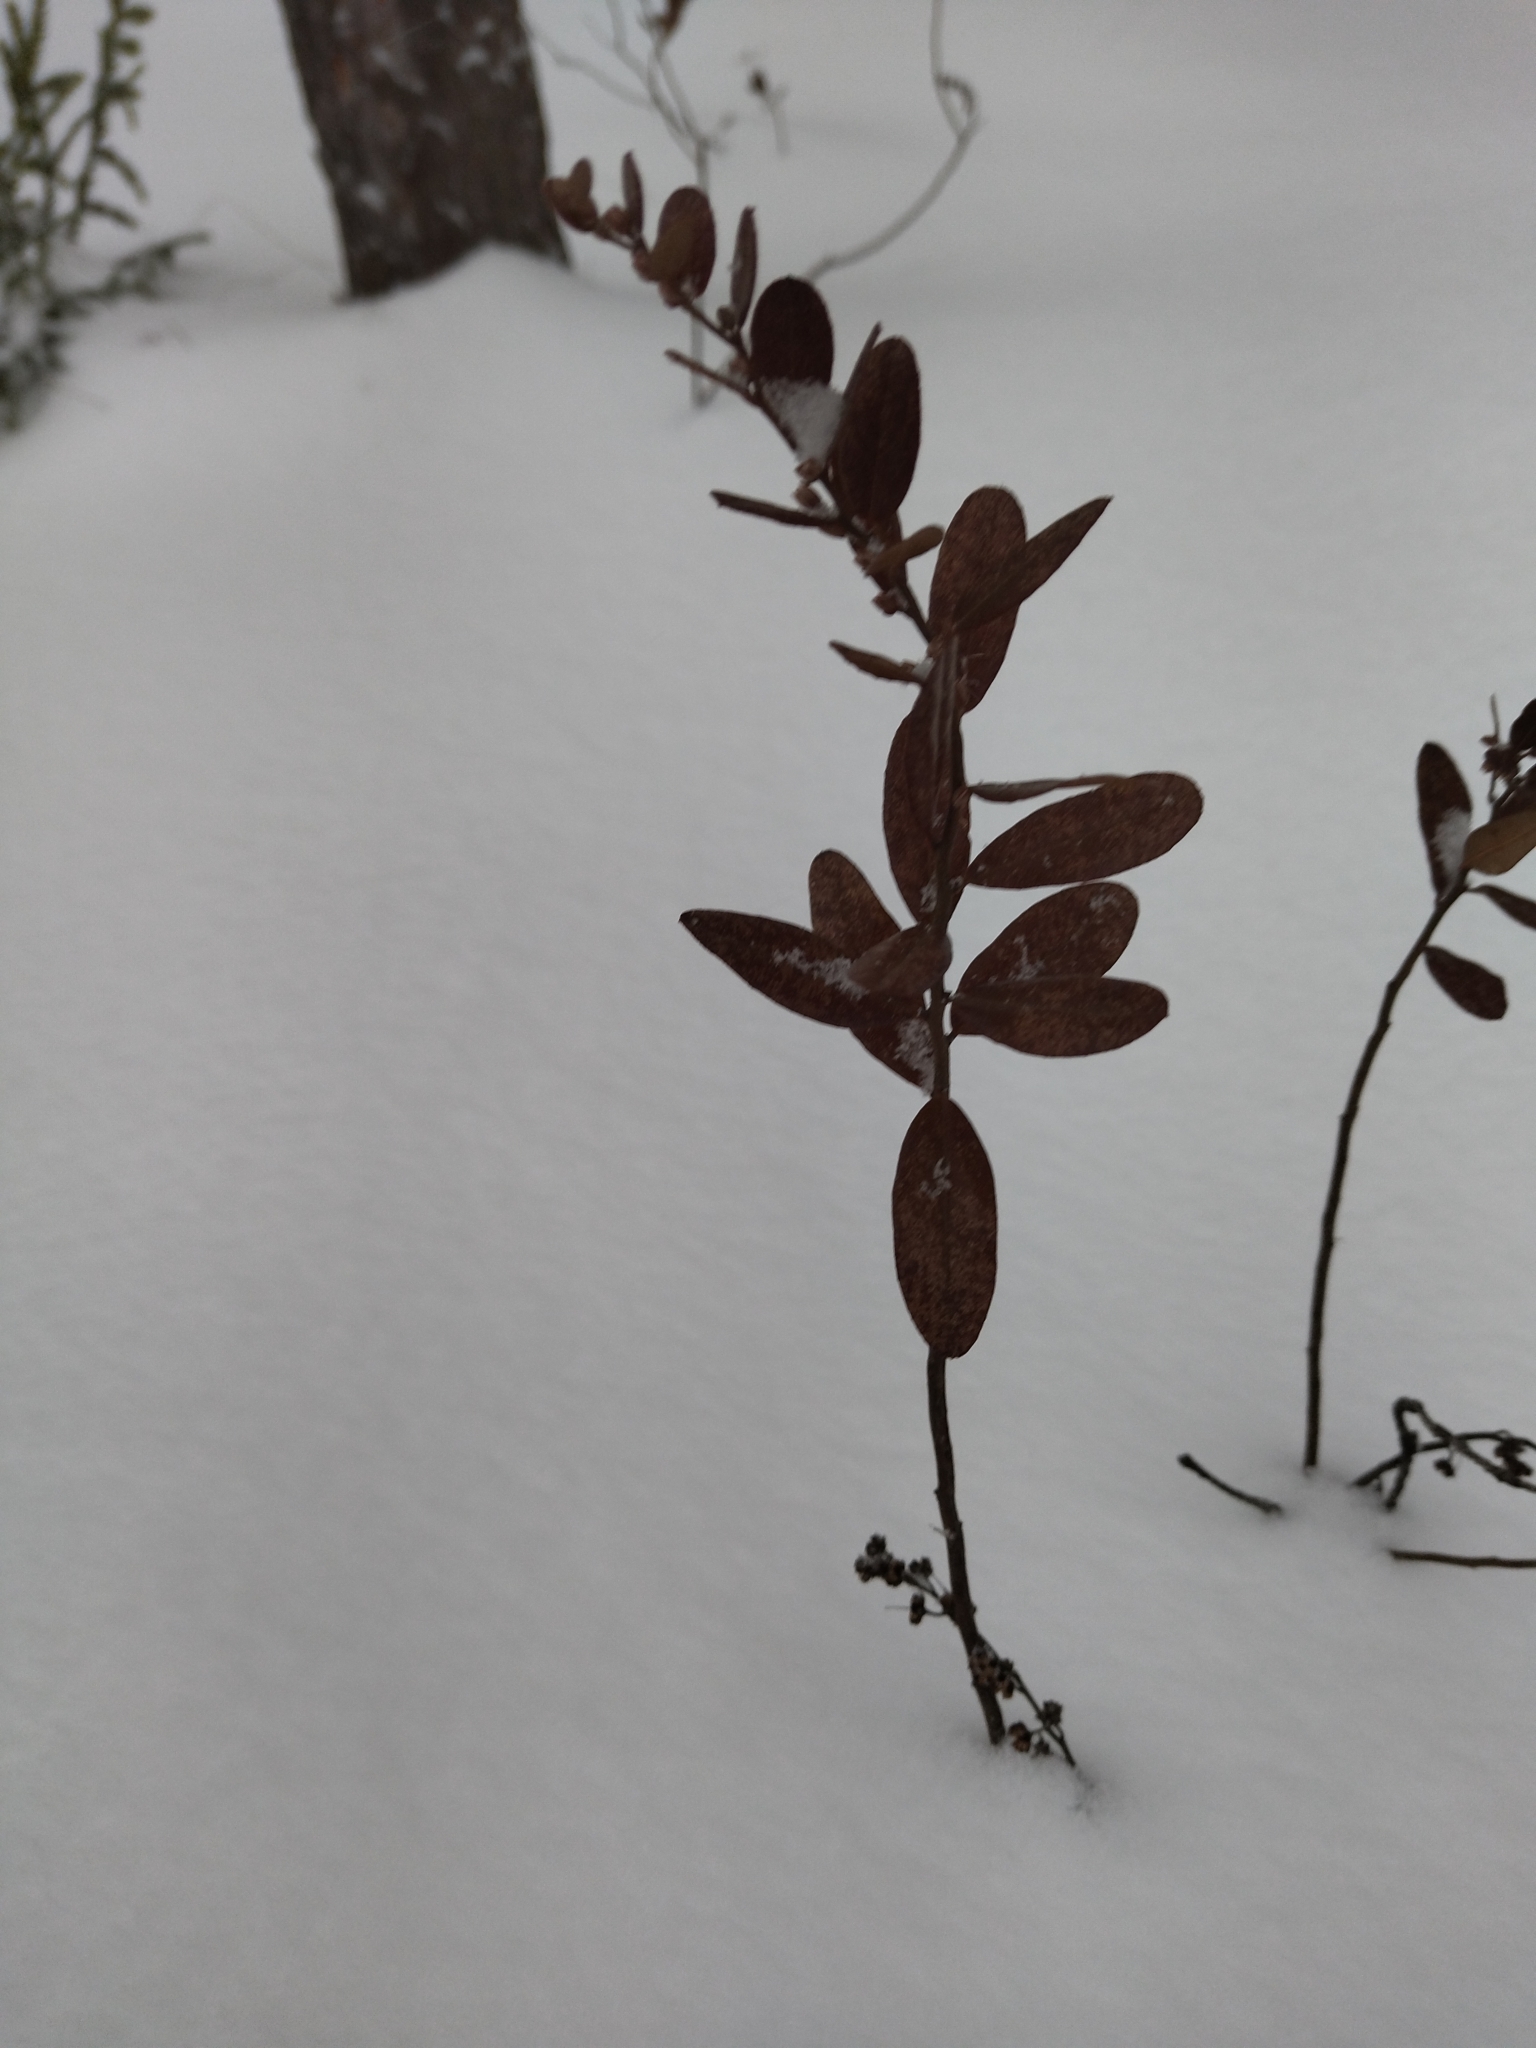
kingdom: Plantae
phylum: Tracheophyta
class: Magnoliopsida
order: Ericales
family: Ericaceae
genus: Chamaedaphne
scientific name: Chamaedaphne calyculata
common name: Leatherleaf
